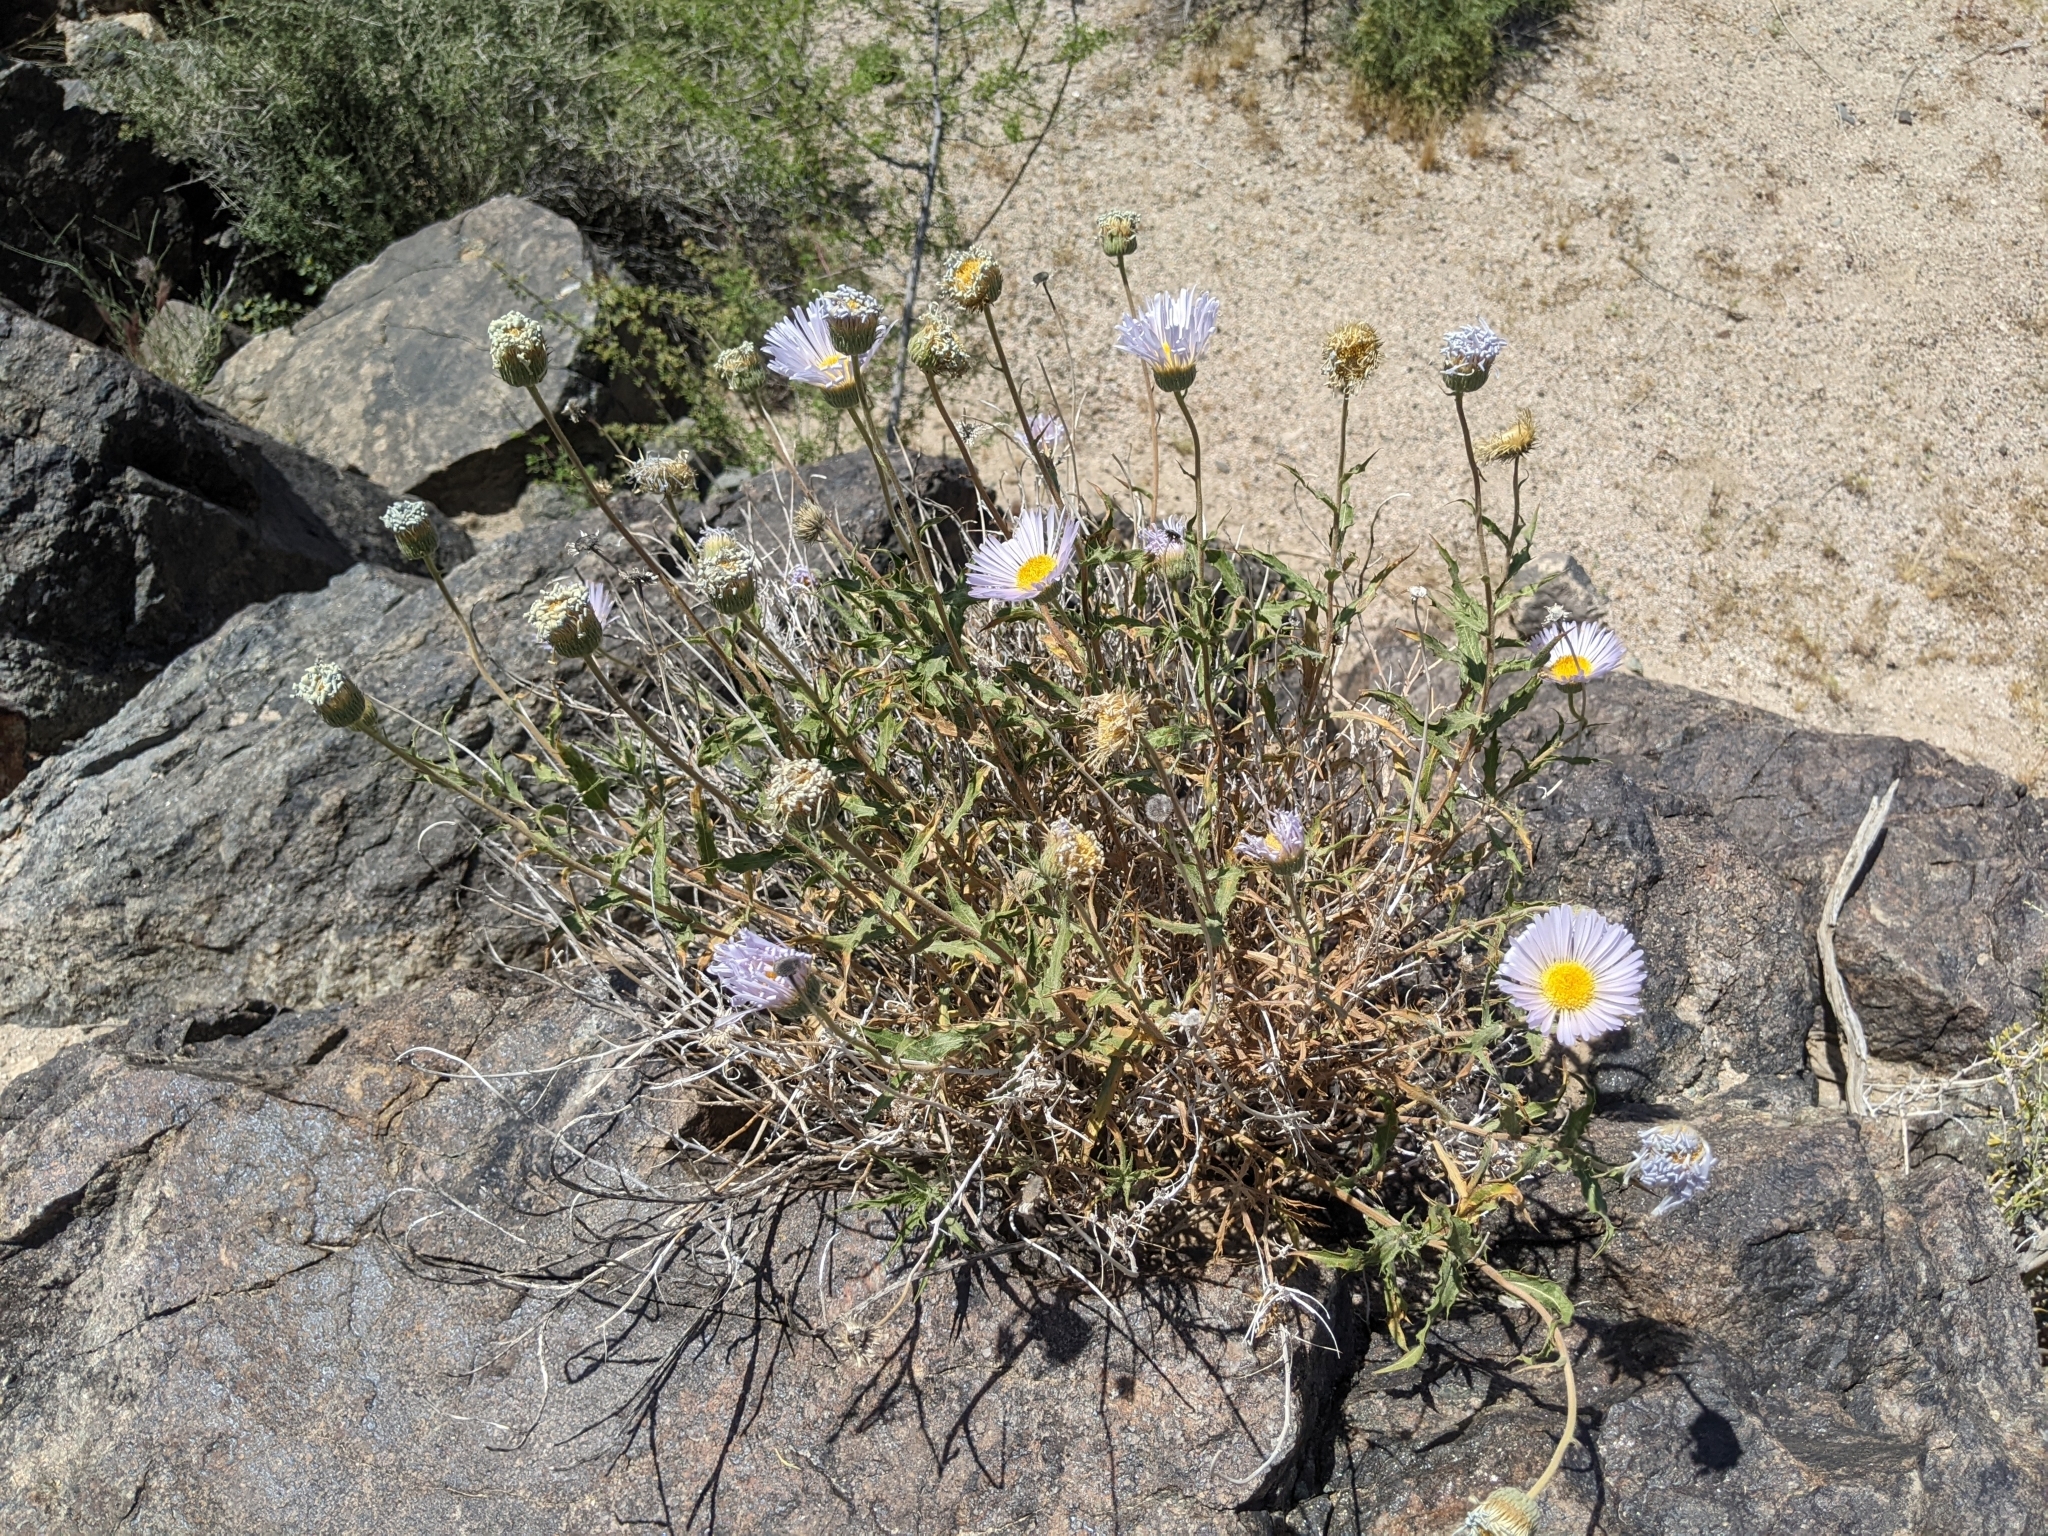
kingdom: Plantae
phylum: Tracheophyta
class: Magnoliopsida
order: Asterales
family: Asteraceae
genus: Xylorhiza
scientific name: Xylorhiza tortifolia
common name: Hurt-leaf woody-aster
